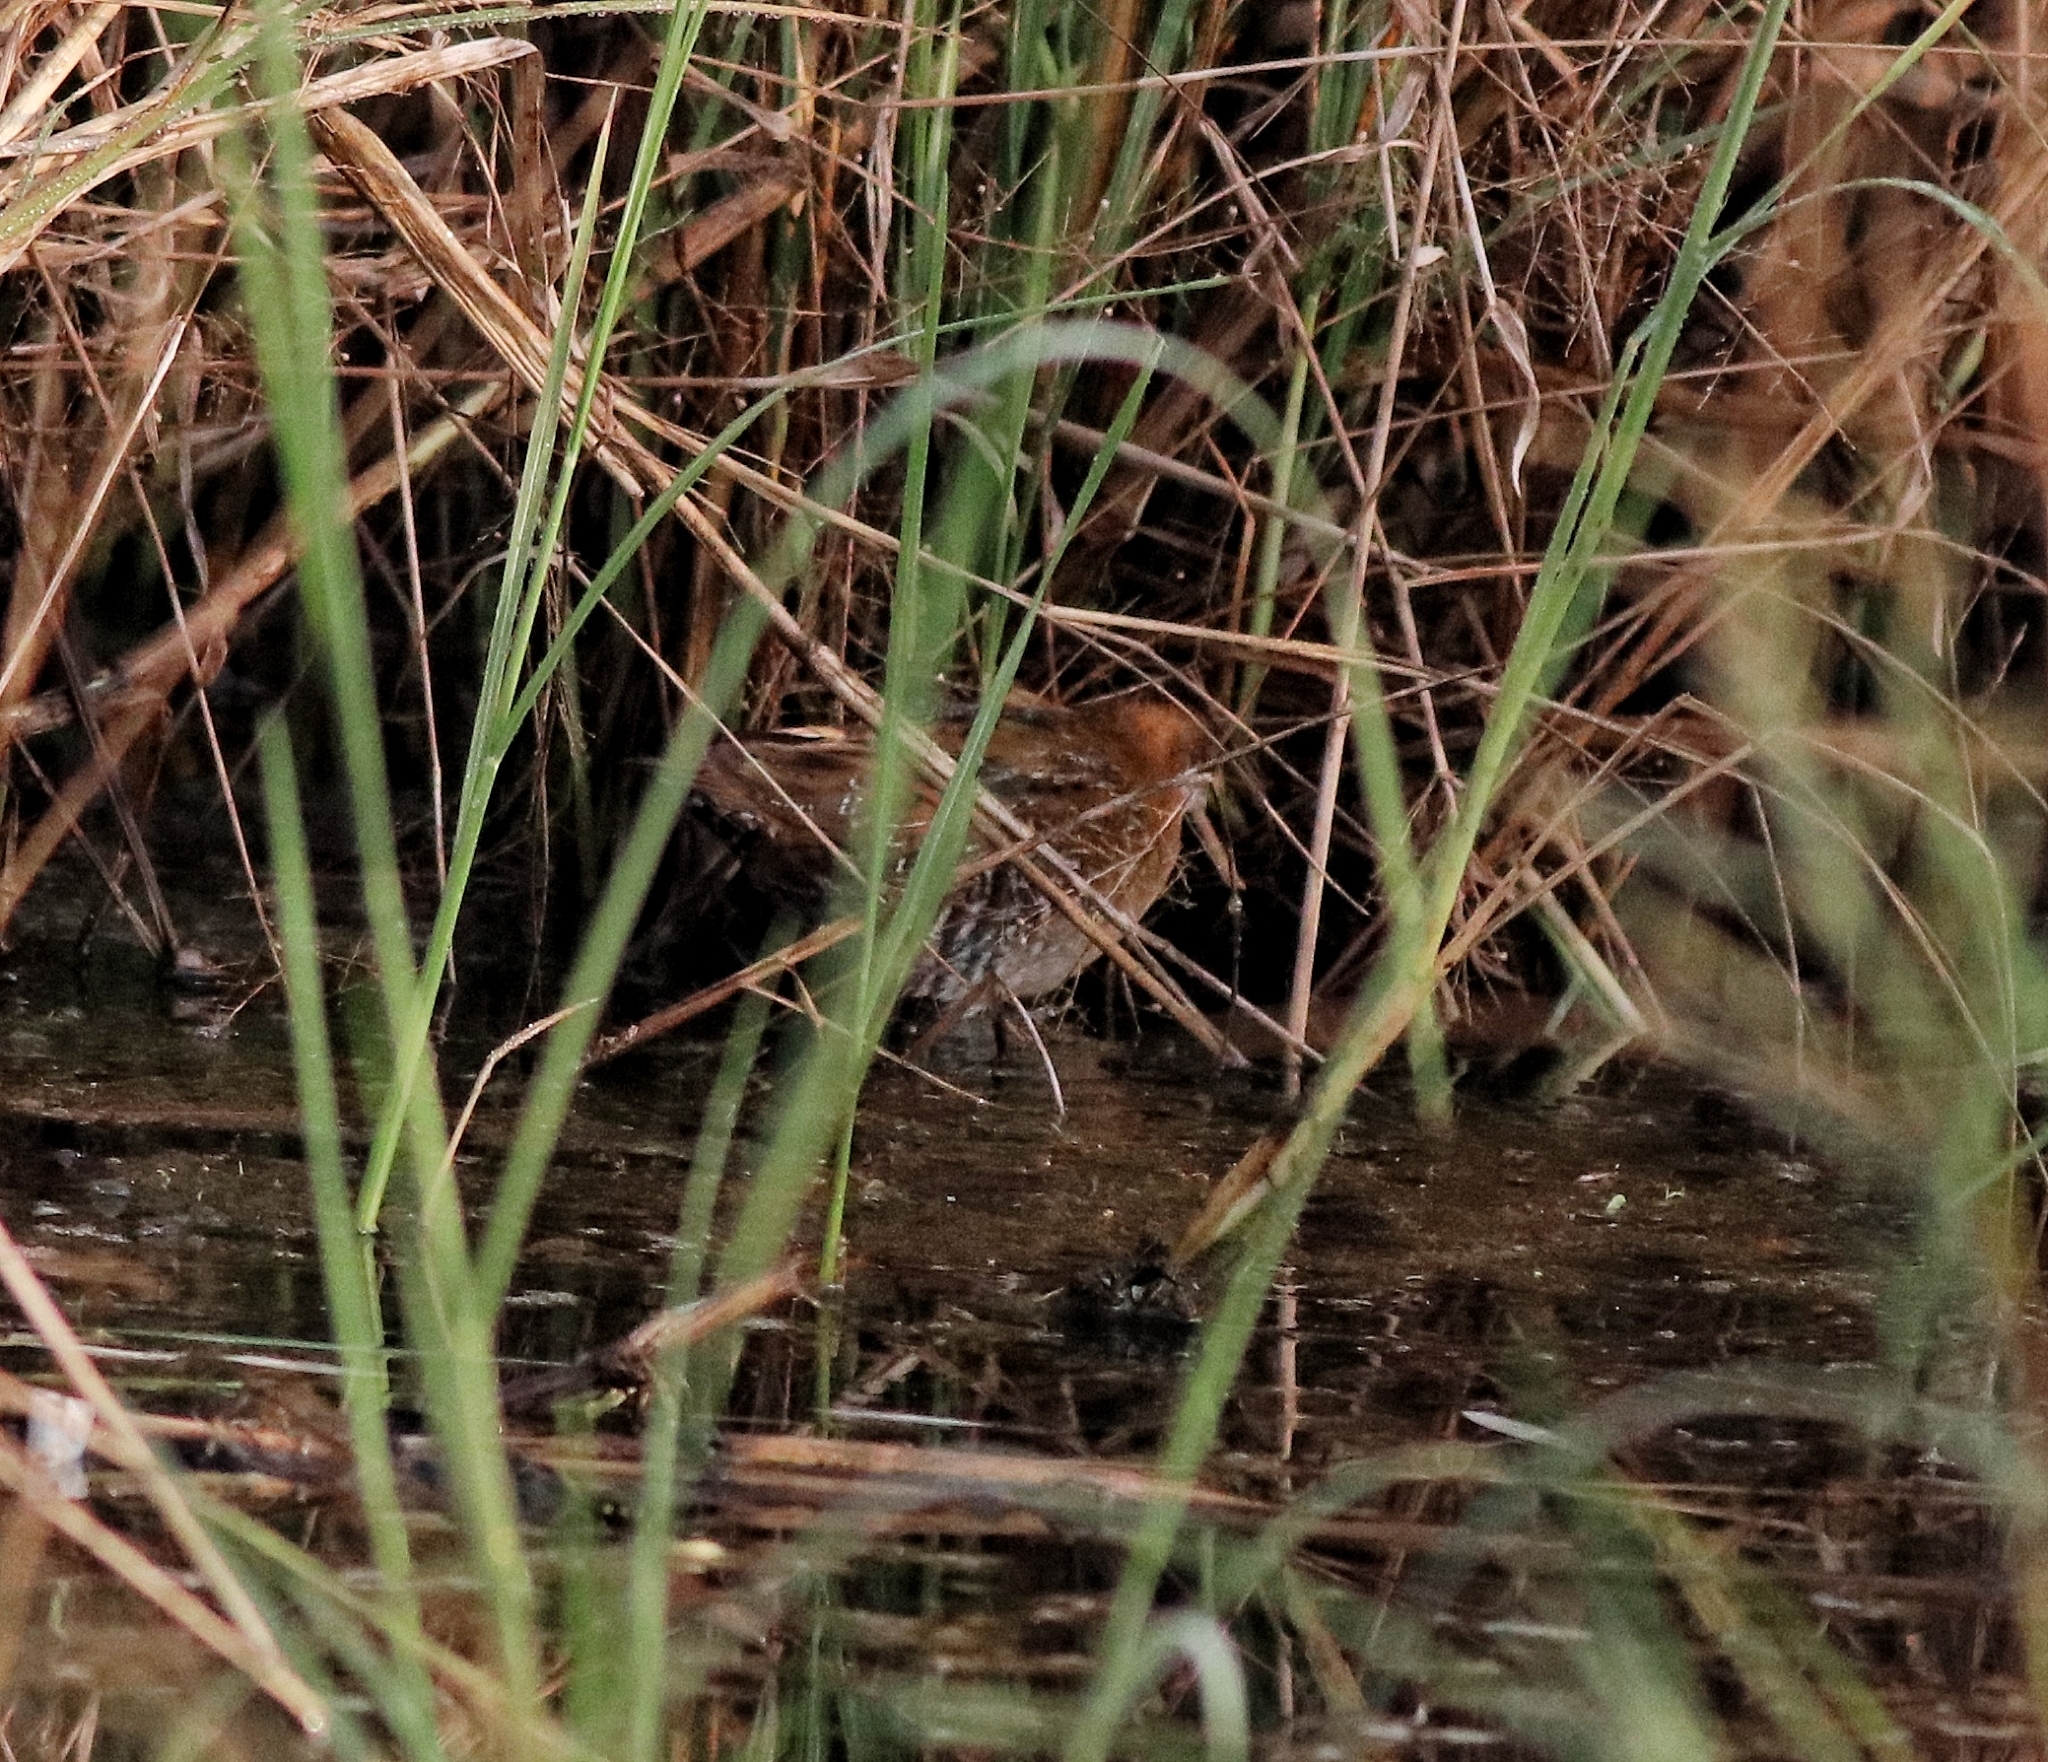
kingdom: Animalia
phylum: Chordata
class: Aves
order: Gruiformes
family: Rallidae
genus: Porzana
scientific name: Porzana pusilla
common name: Baillon's crake
